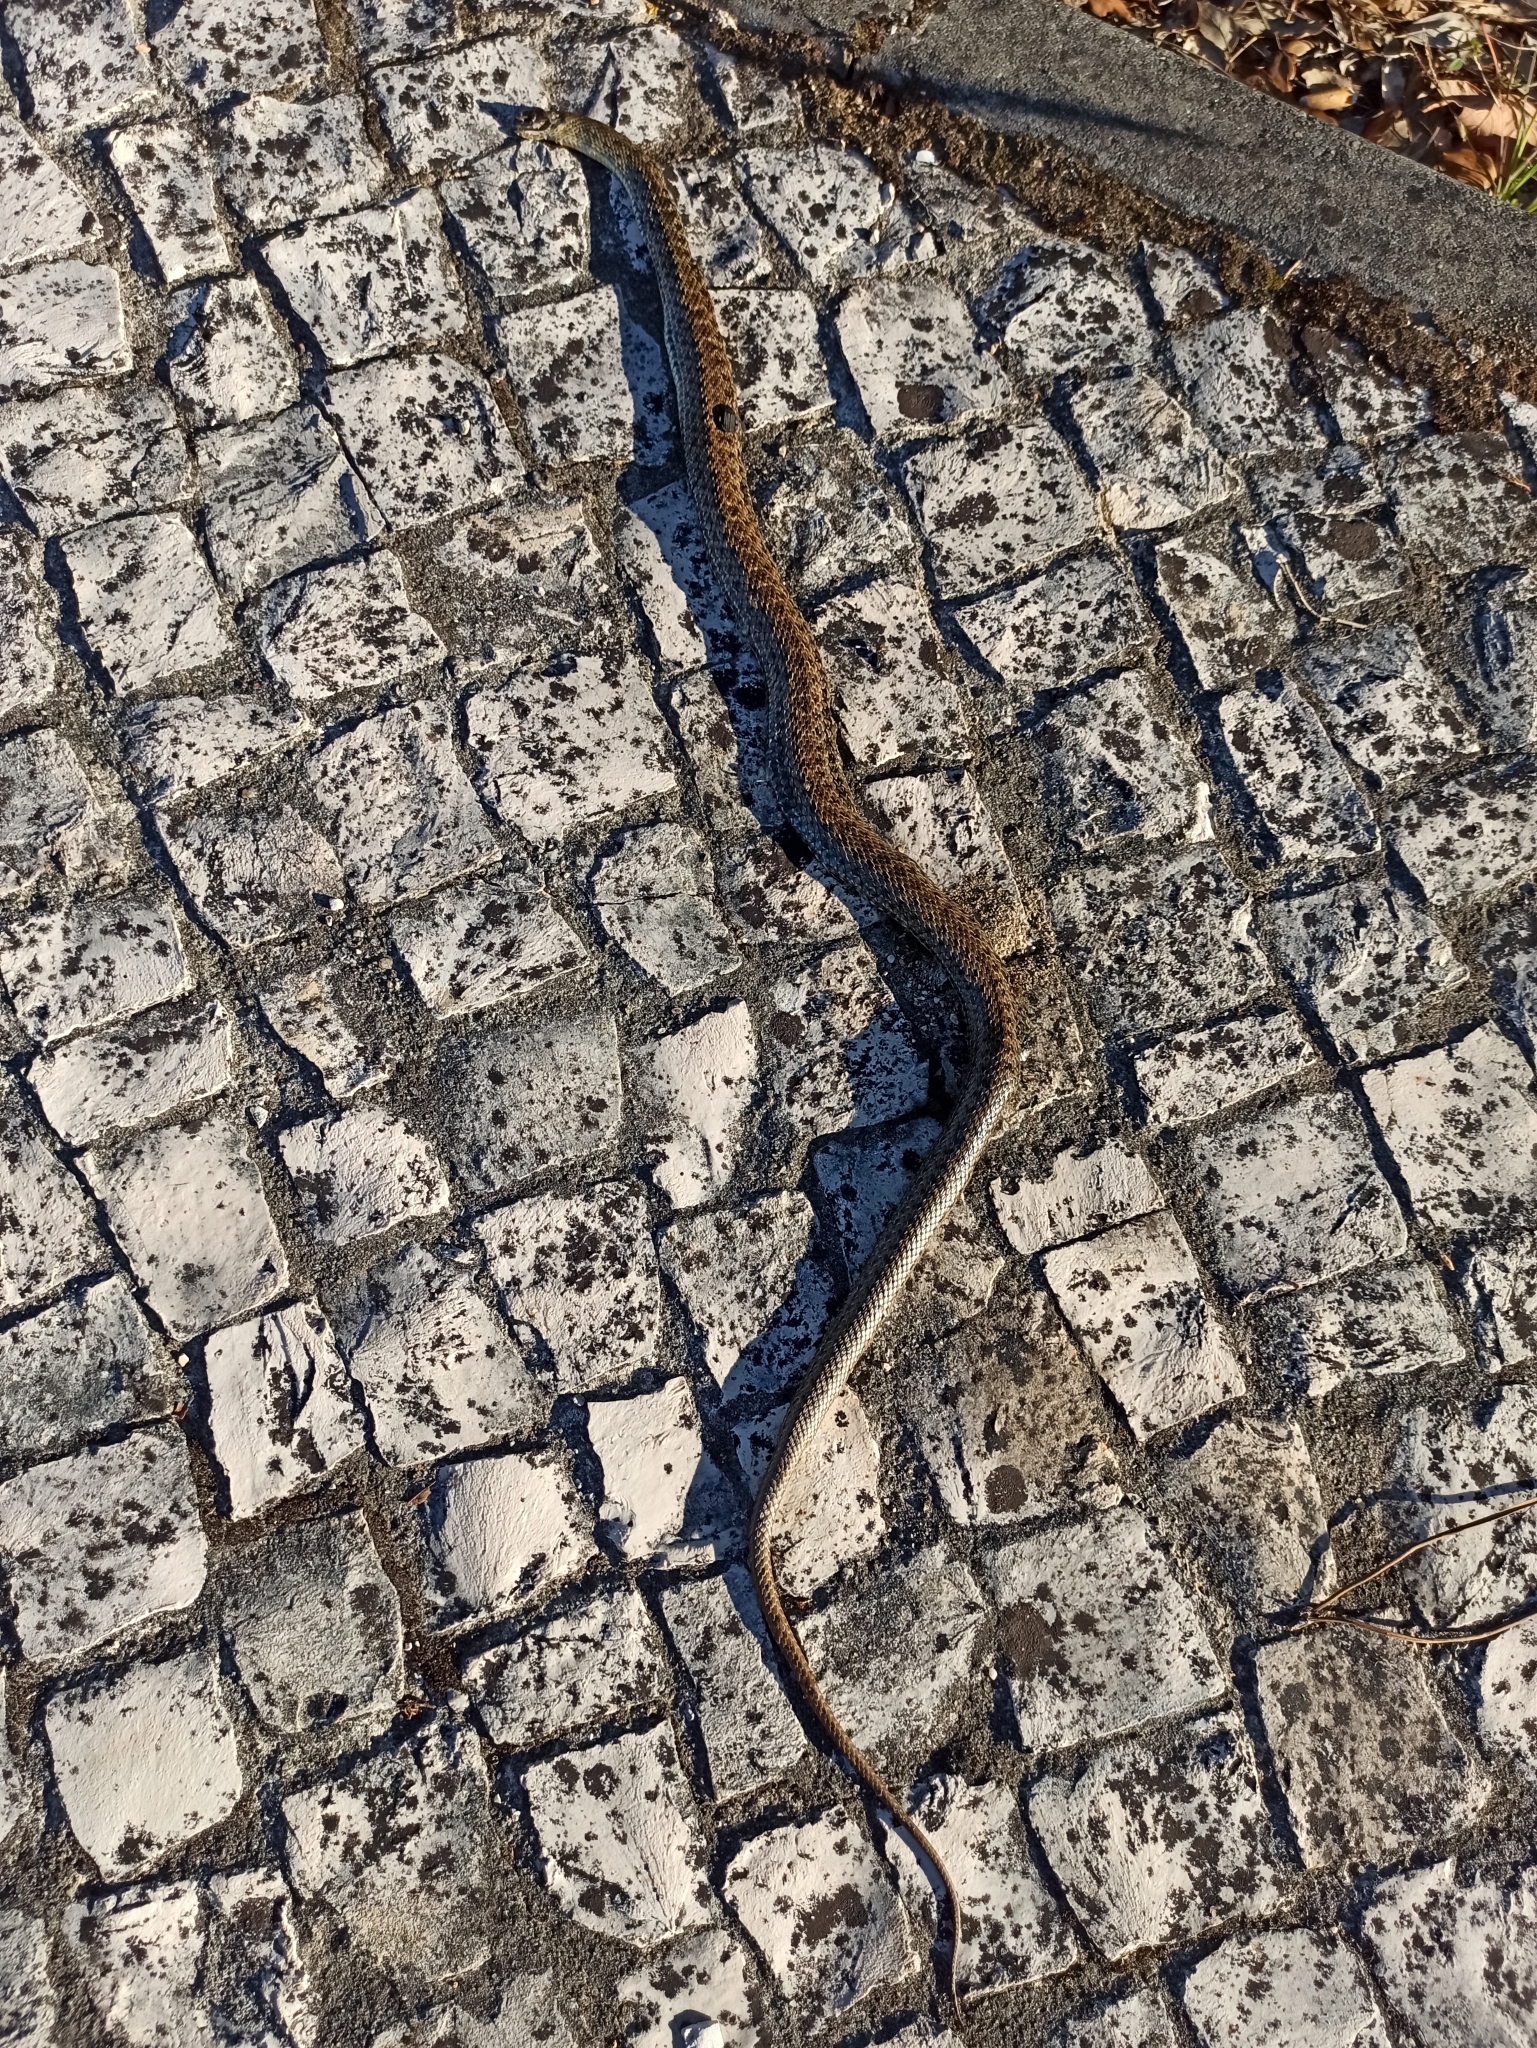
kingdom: Animalia
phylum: Chordata
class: Squamata
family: Psammophiidae
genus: Malpolon
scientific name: Malpolon monspessulanus
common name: Montpellier snake
